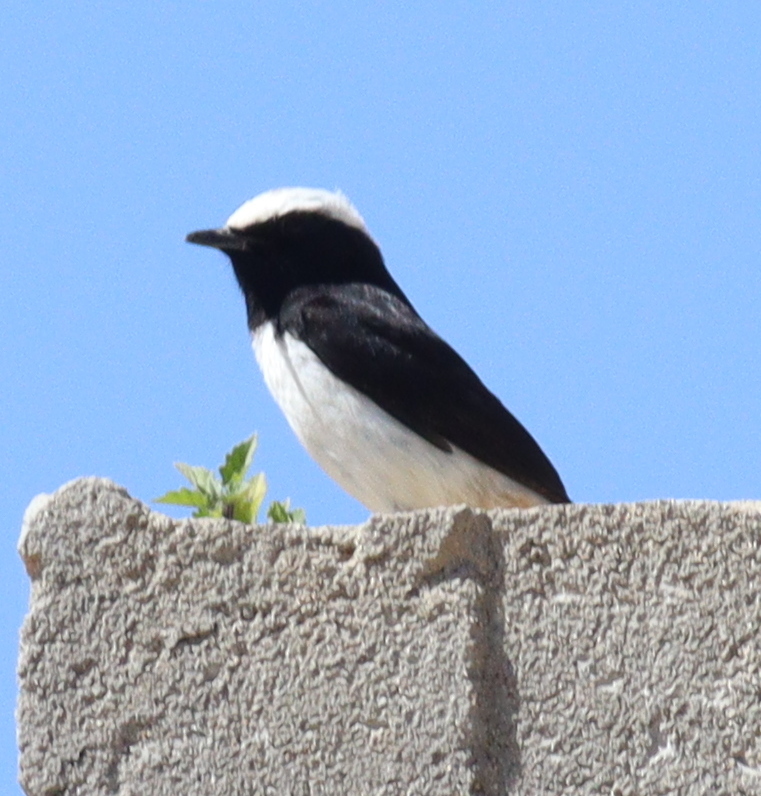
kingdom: Animalia
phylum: Chordata
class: Aves
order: Passeriformes
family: Muscicapidae
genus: Oenanthe
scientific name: Oenanthe lugentoides
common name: Arabian wheatear
